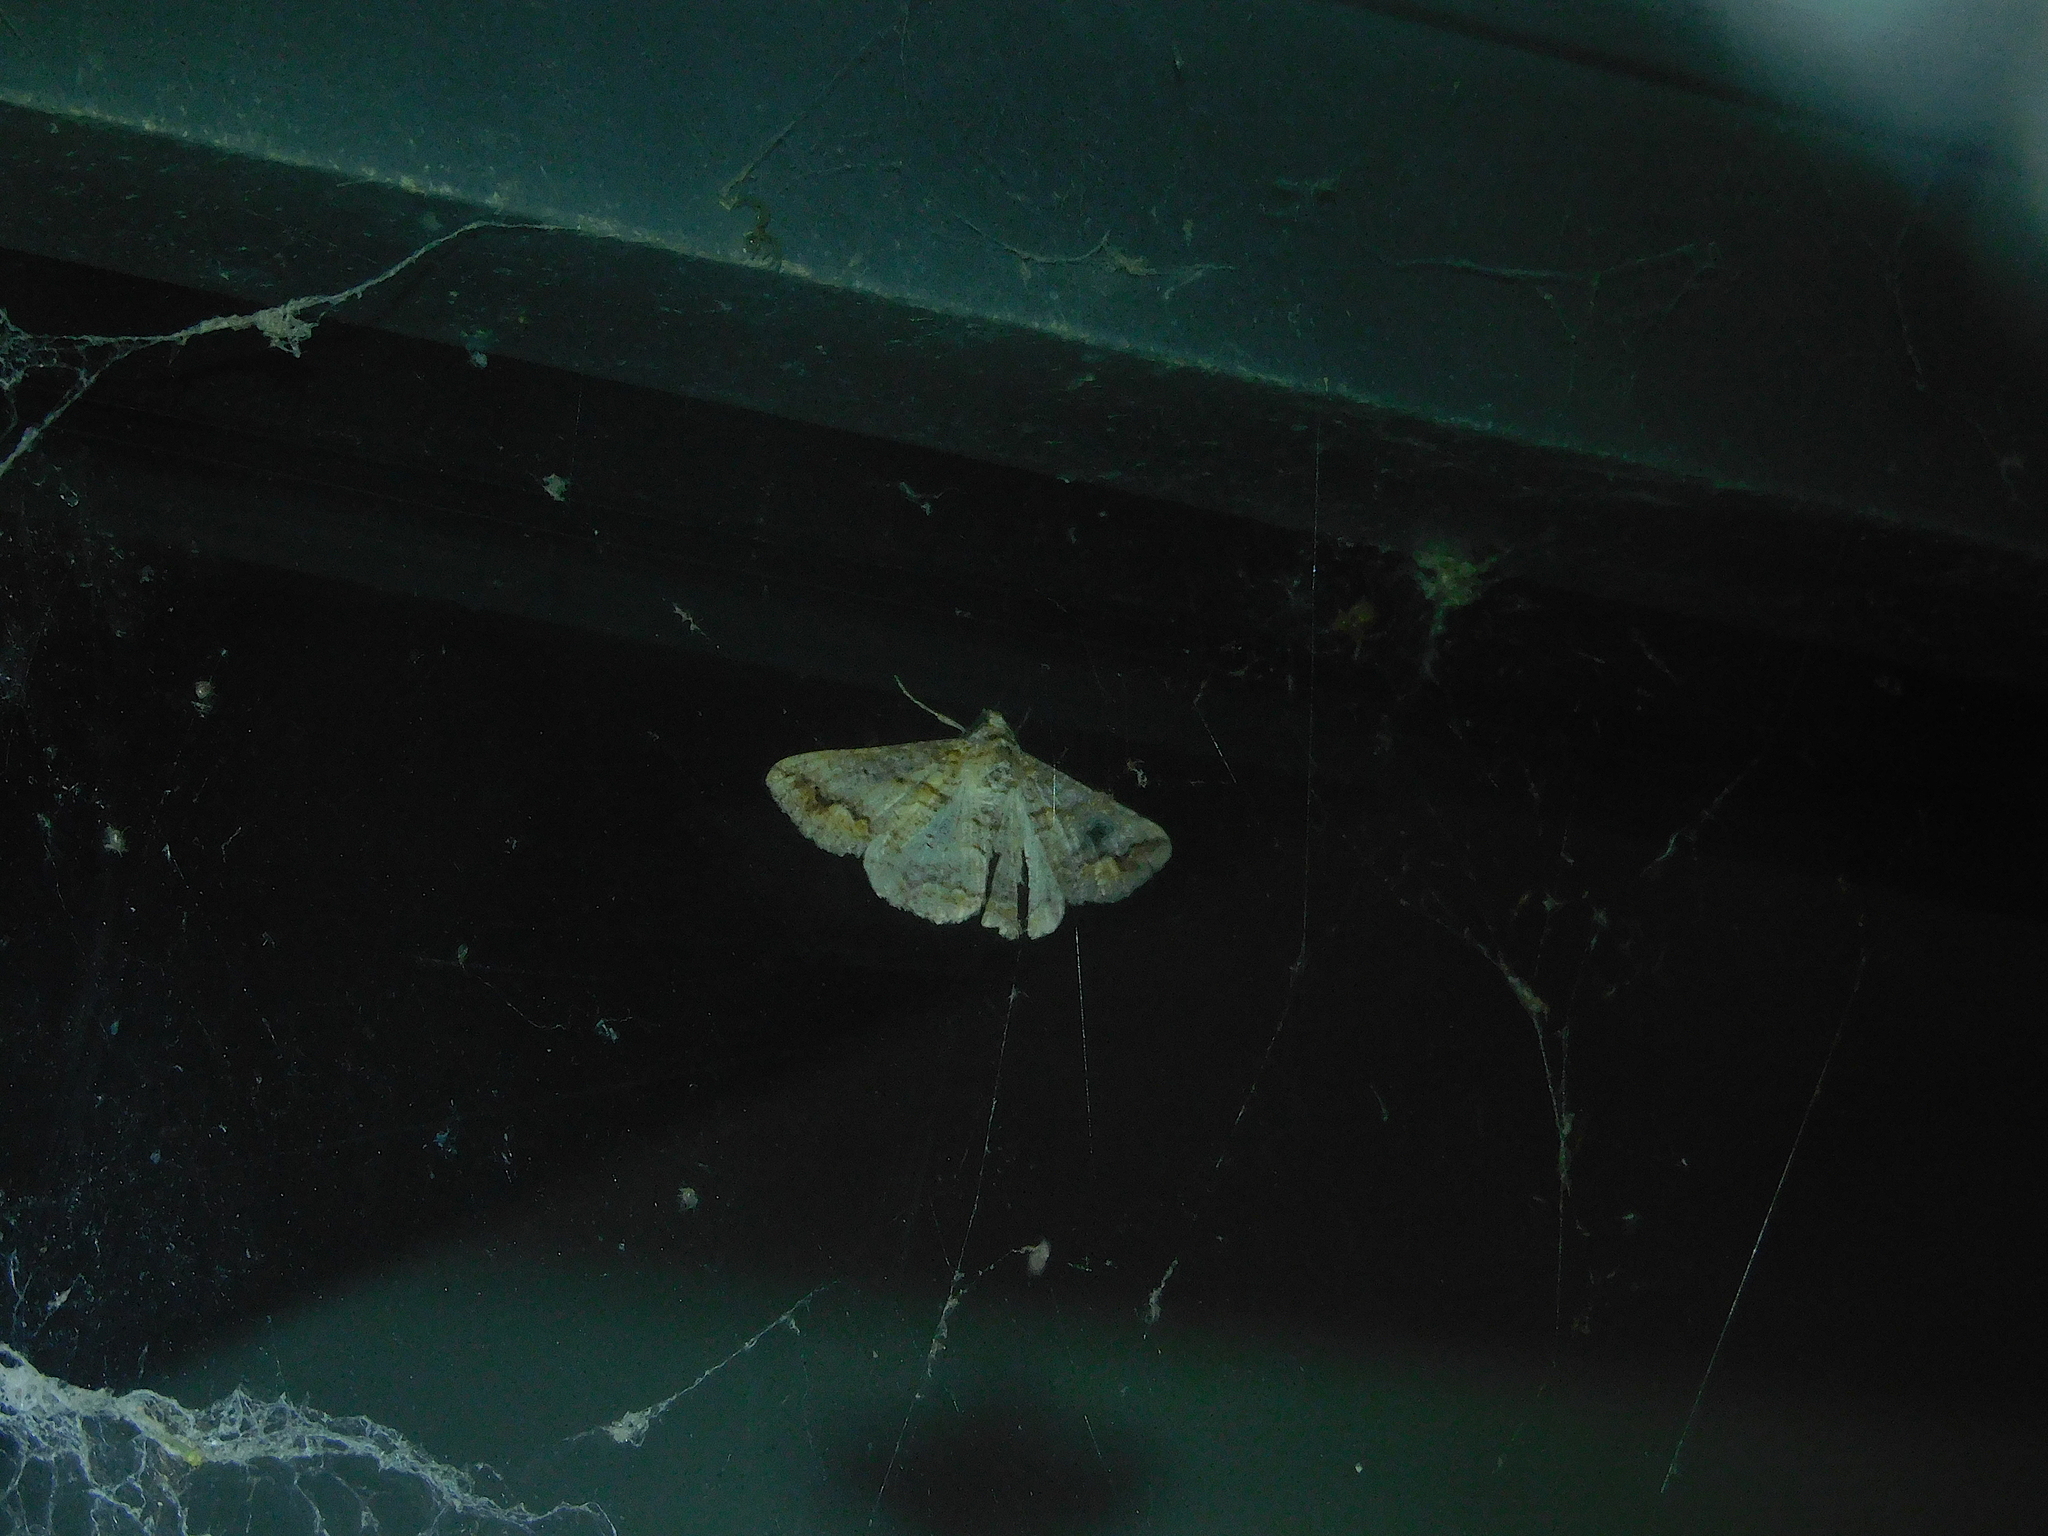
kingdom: Animalia
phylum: Arthropoda
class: Insecta
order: Lepidoptera
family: Geometridae
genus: Gastrinodes
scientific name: Gastrinodes bitaeniaria
